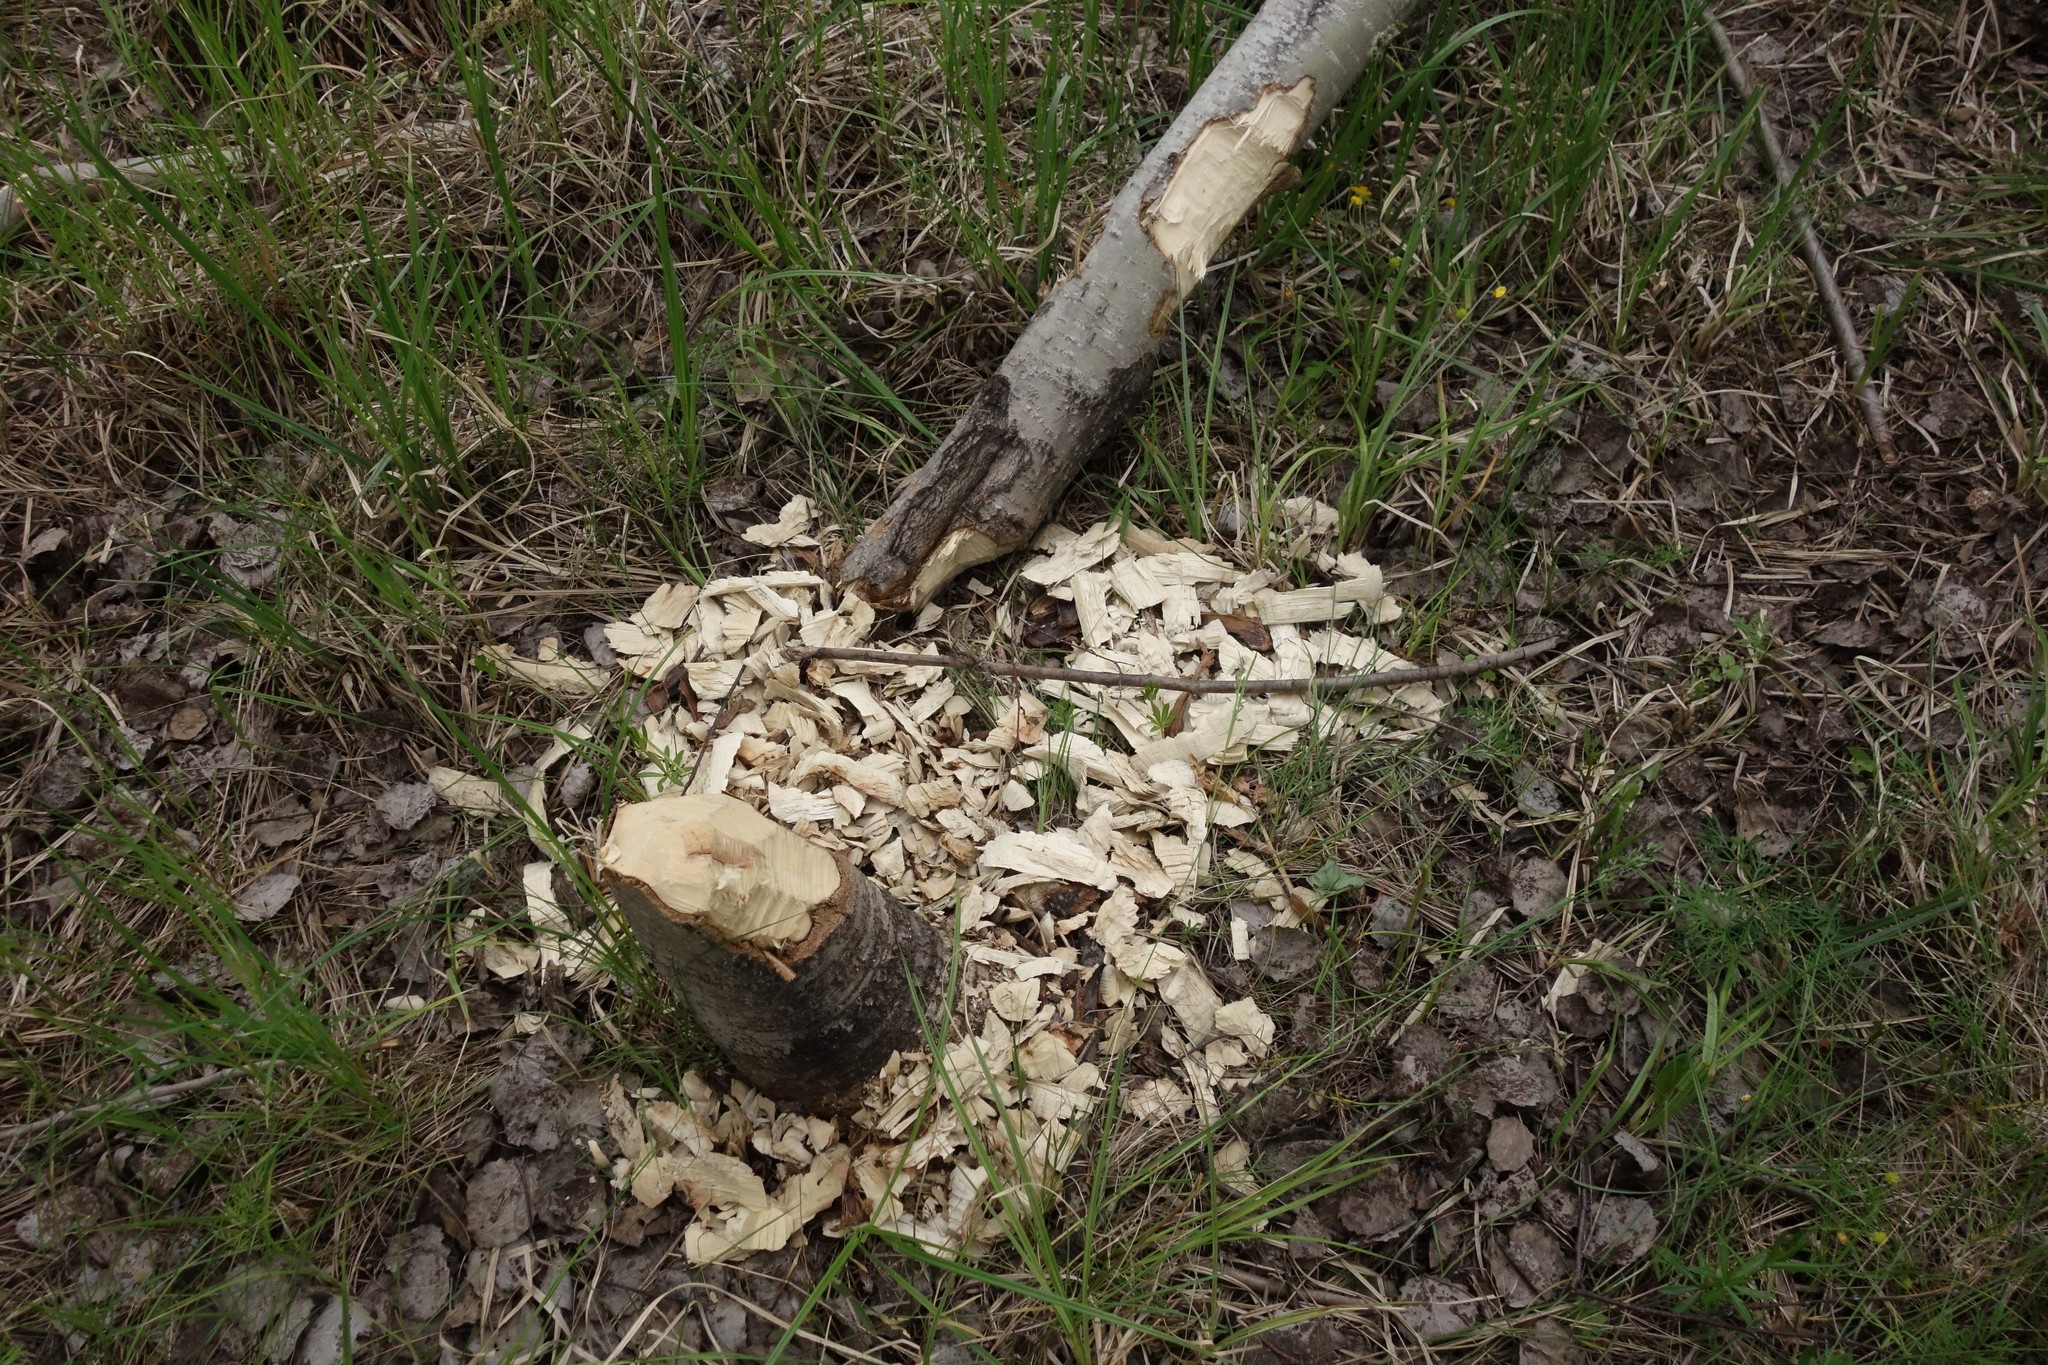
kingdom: Animalia
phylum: Chordata
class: Mammalia
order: Rodentia
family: Castoridae
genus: Castor
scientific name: Castor fiber
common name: Eurasian beaver
